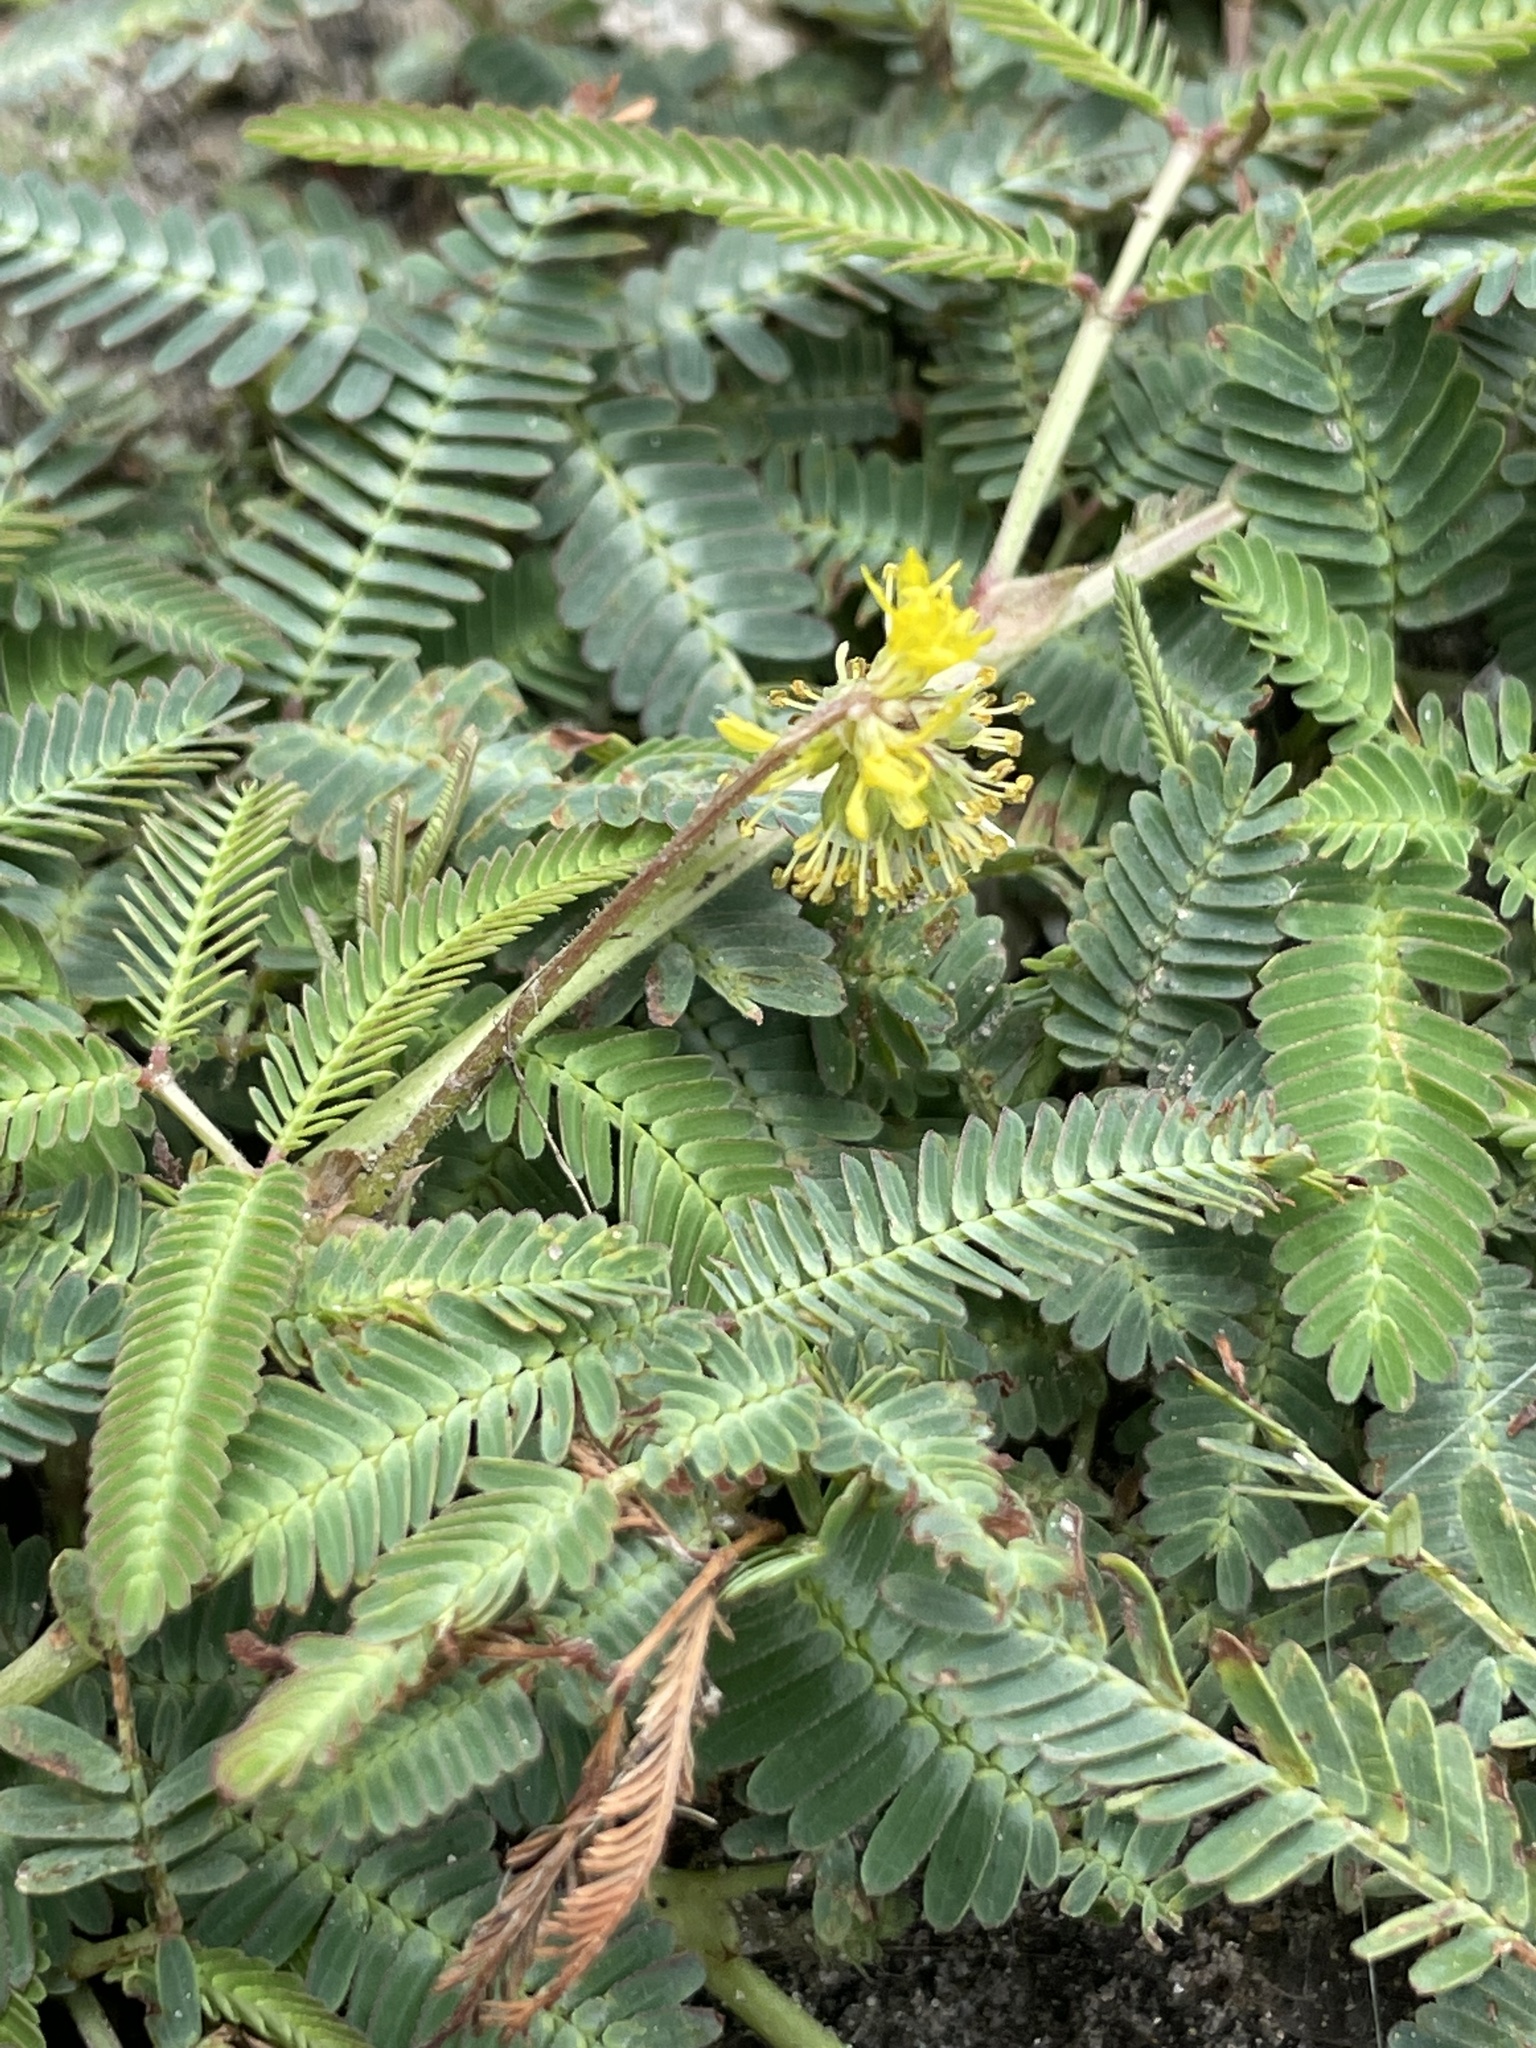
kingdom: Plantae
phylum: Tracheophyta
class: Magnoliopsida
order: Fabales
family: Fabaceae
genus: Neptunia
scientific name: Neptunia pubescens
